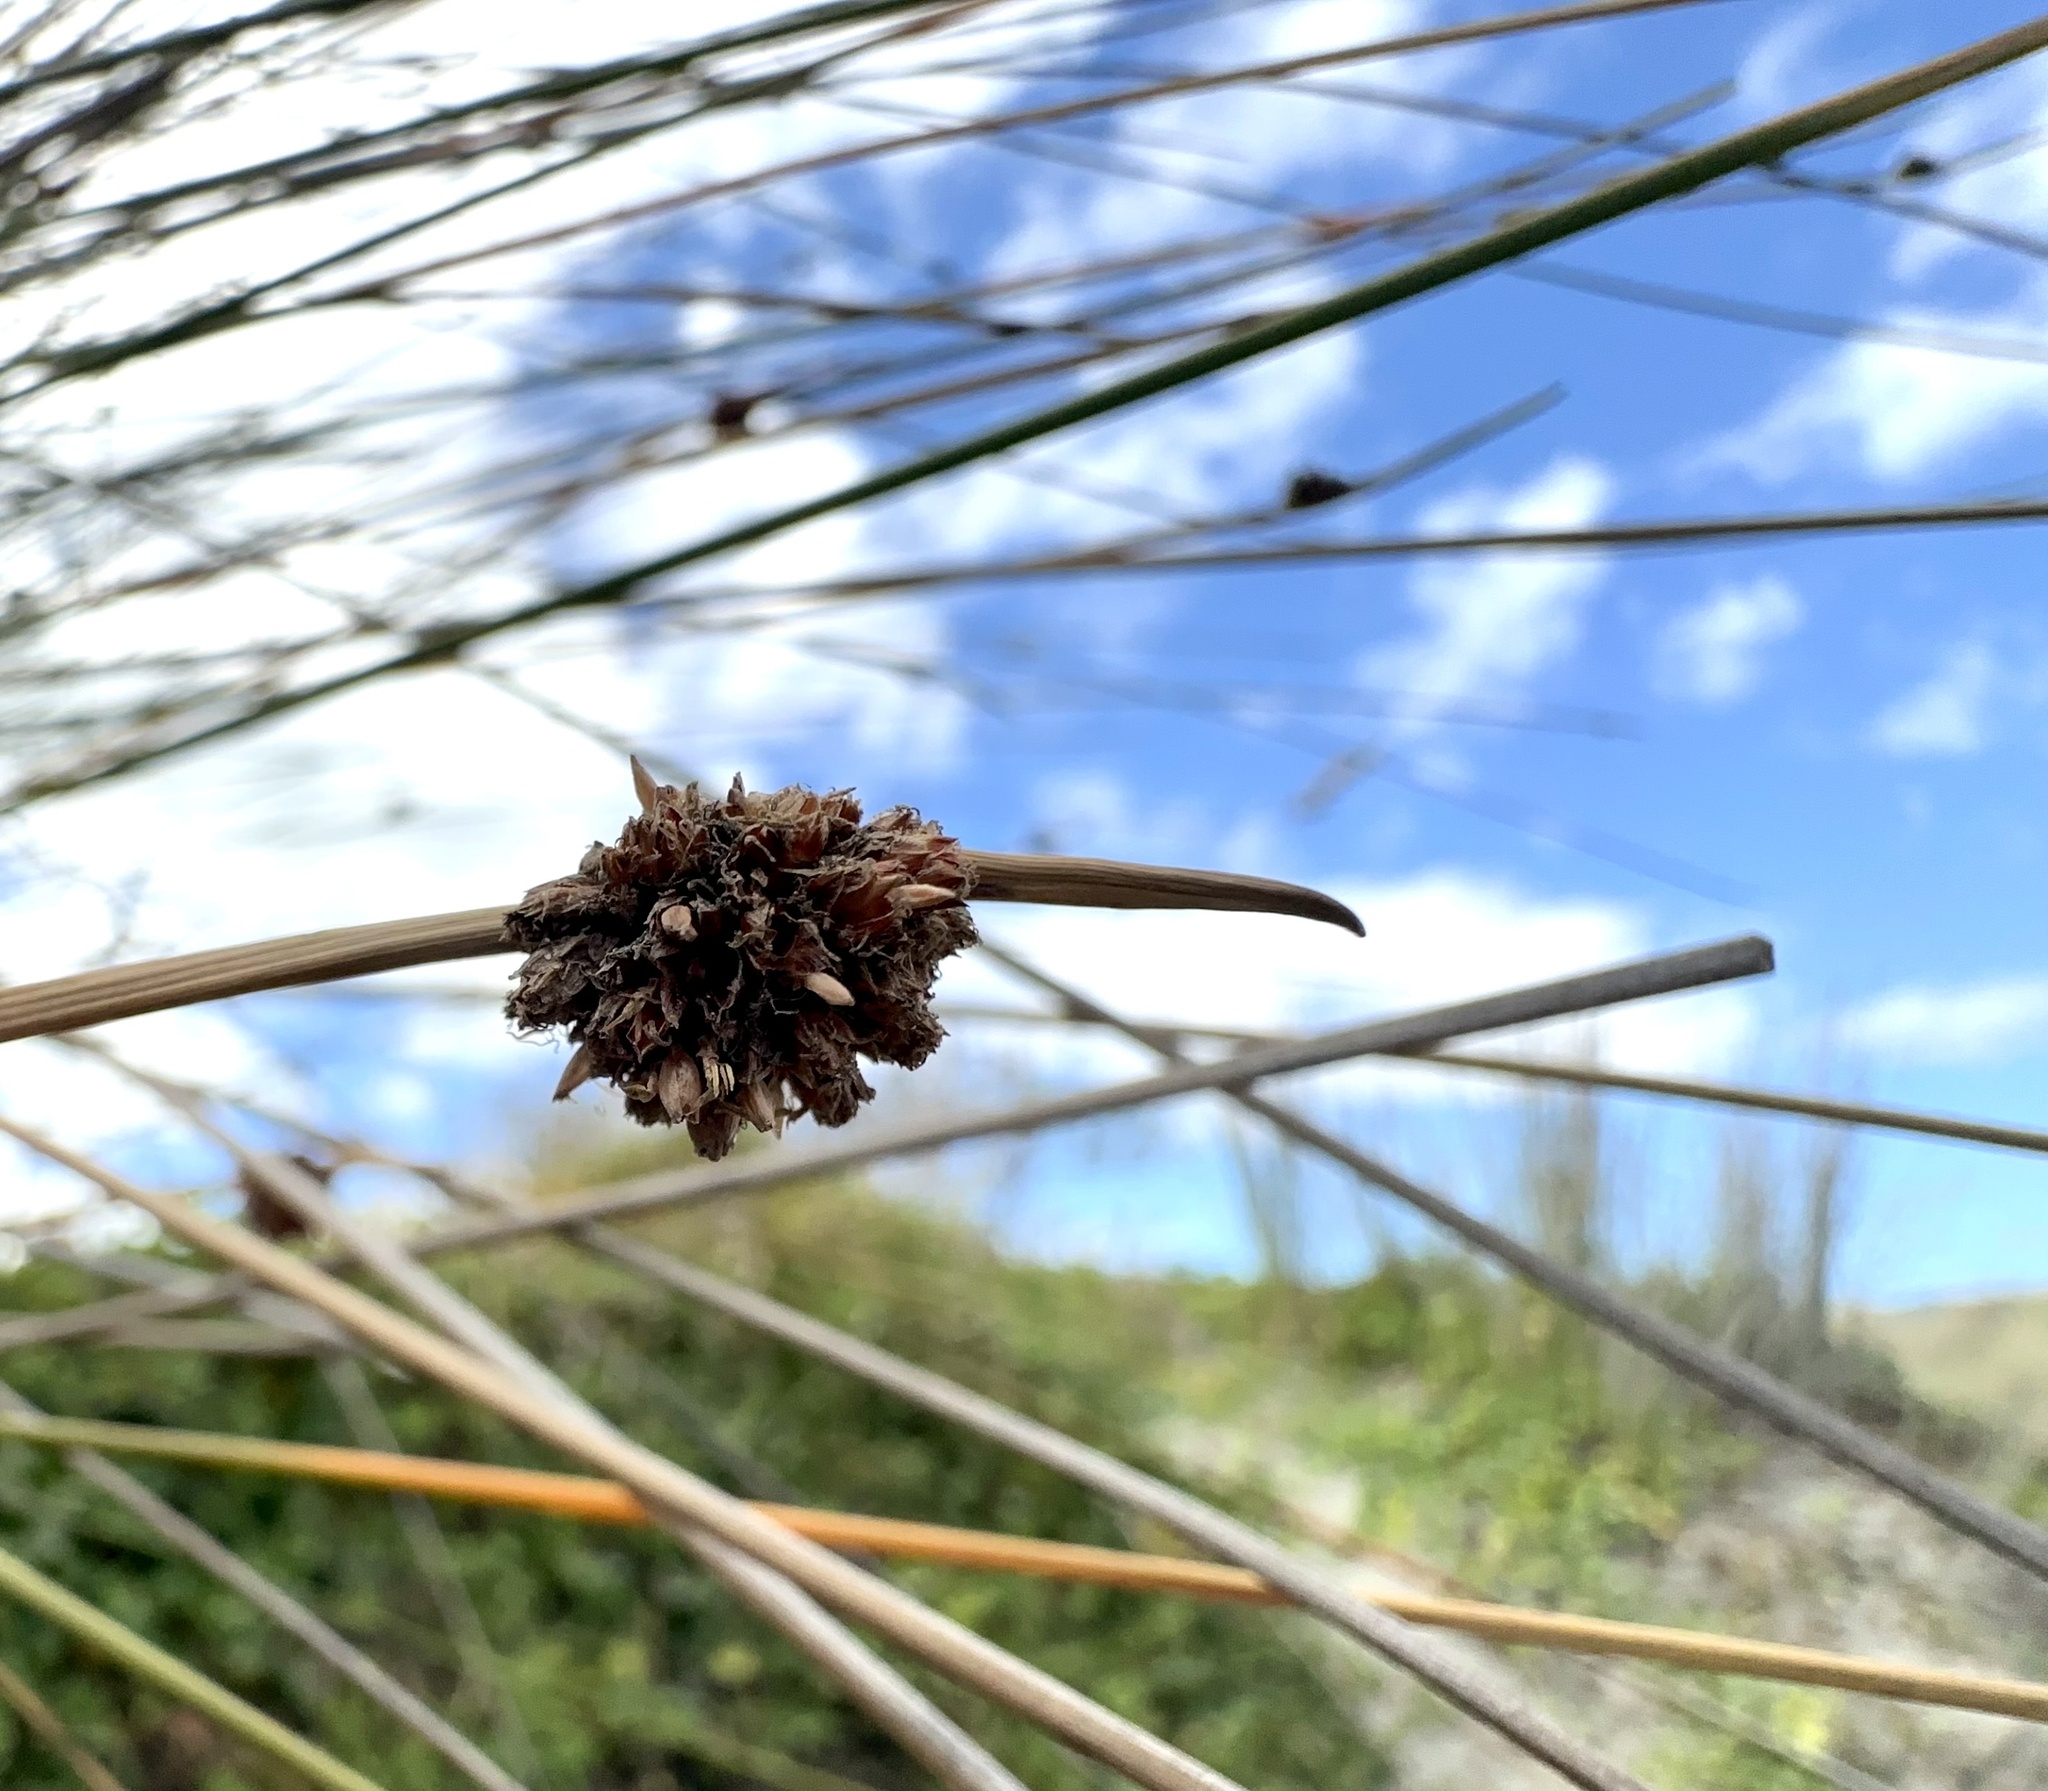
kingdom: Plantae
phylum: Tracheophyta
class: Liliopsida
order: Poales
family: Cyperaceae
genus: Ficinia
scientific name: Ficinia nodosa
